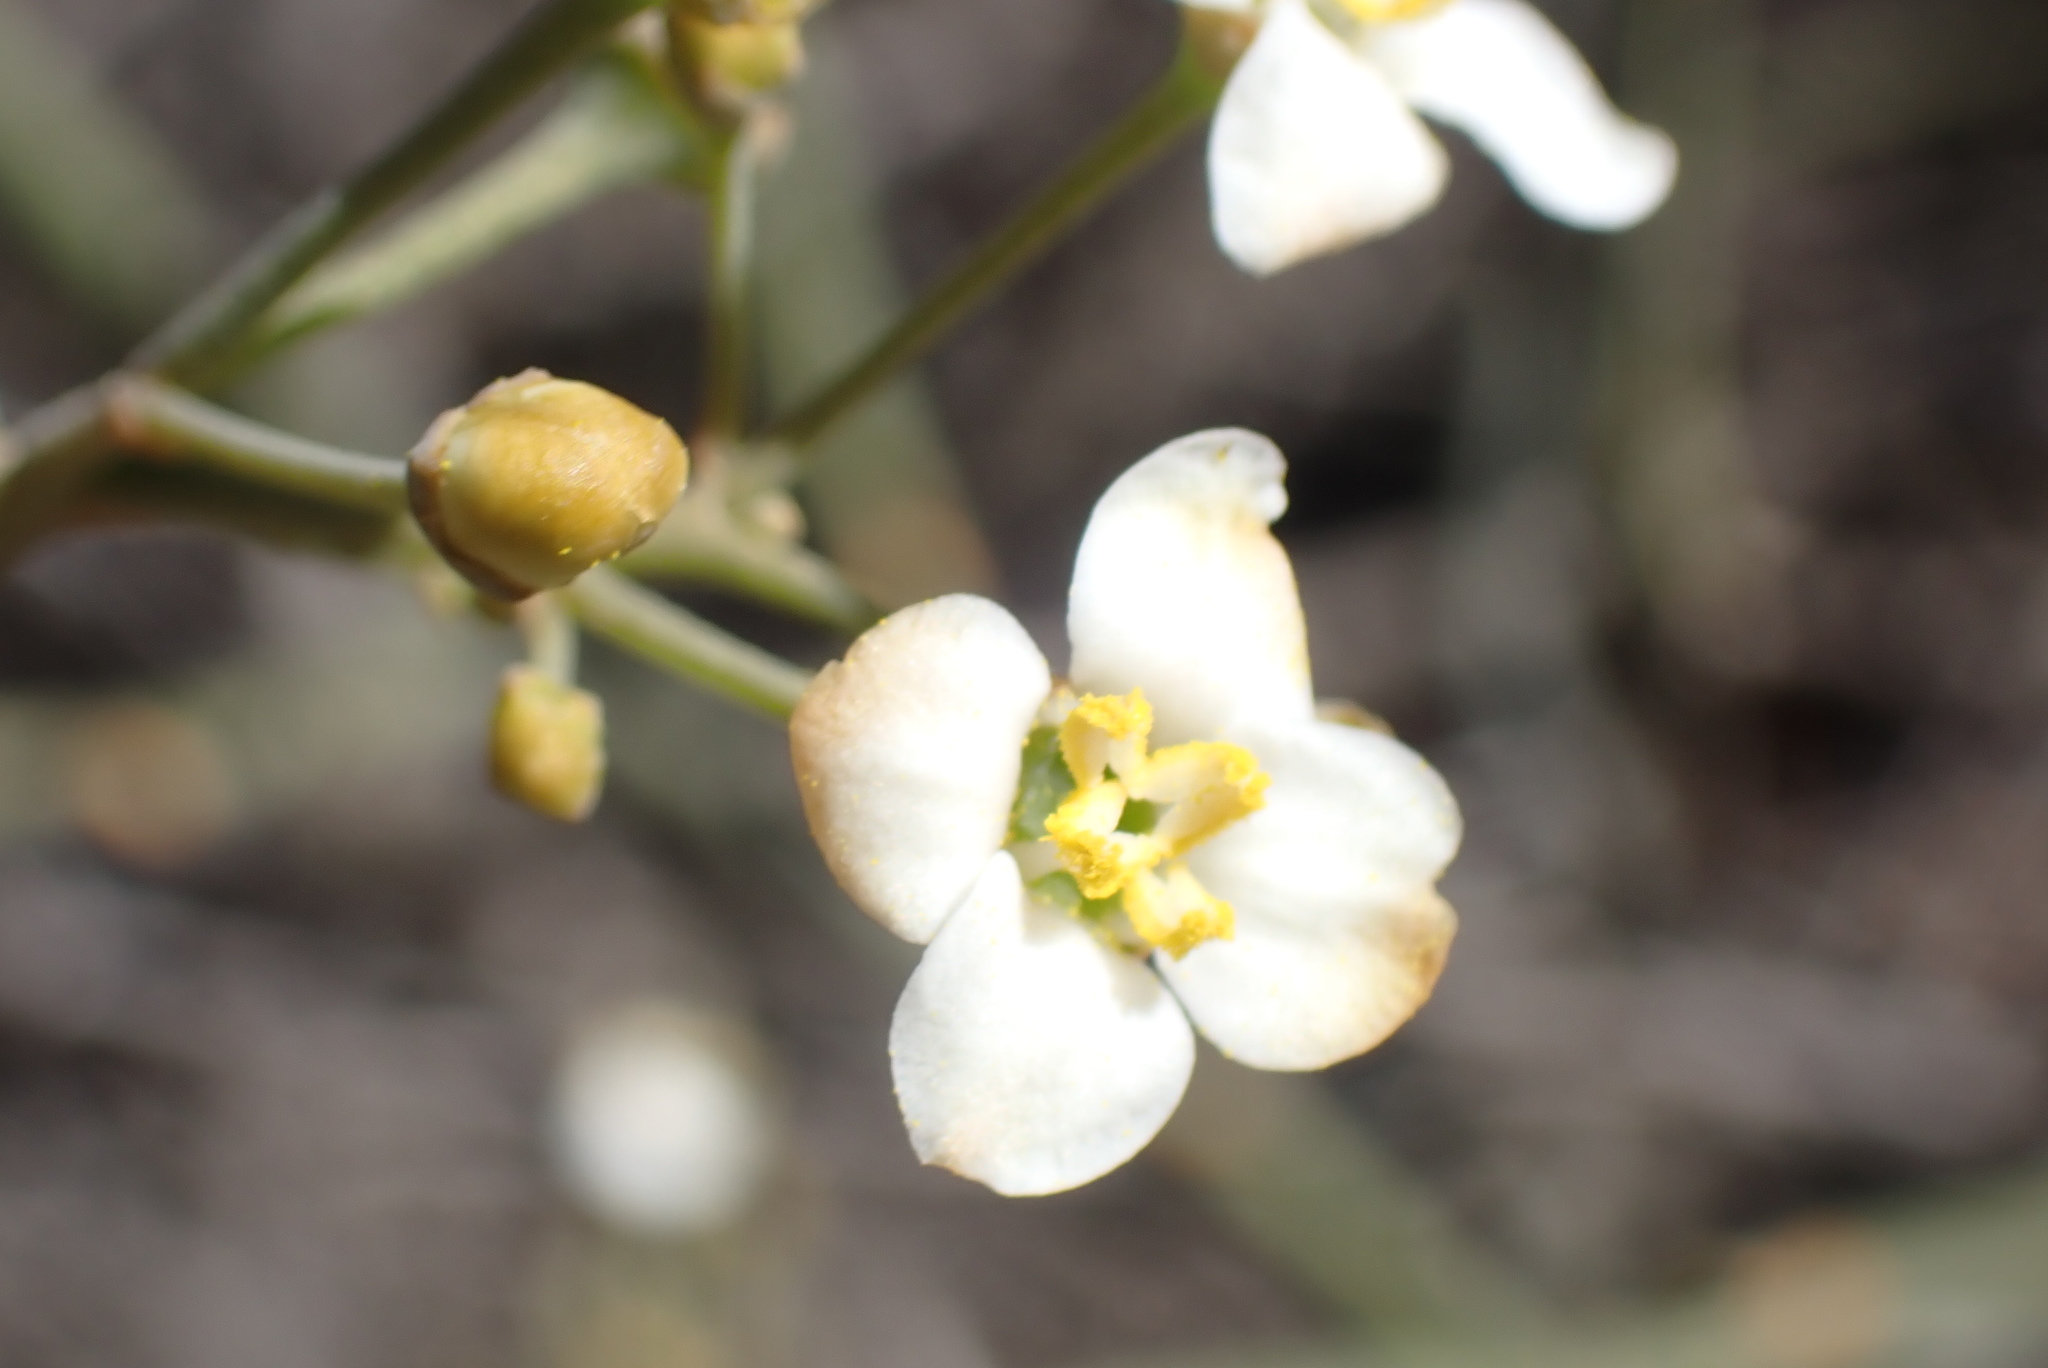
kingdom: Plantae
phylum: Tracheophyta
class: Magnoliopsida
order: Solanales
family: Montiniaceae
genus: Montinia
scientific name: Montinia caryophyllacea
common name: Wild clove-bush
